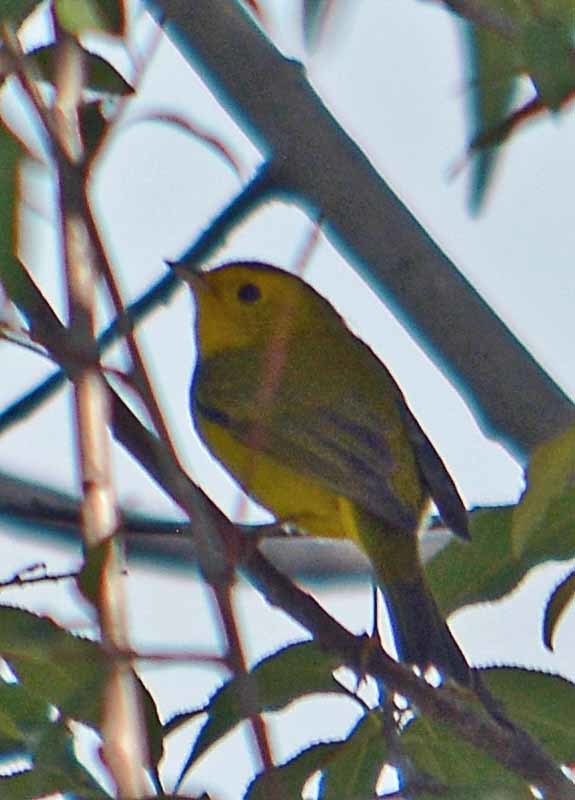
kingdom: Animalia
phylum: Chordata
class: Aves
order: Passeriformes
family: Parulidae
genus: Cardellina
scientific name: Cardellina pusilla
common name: Wilson's warbler
